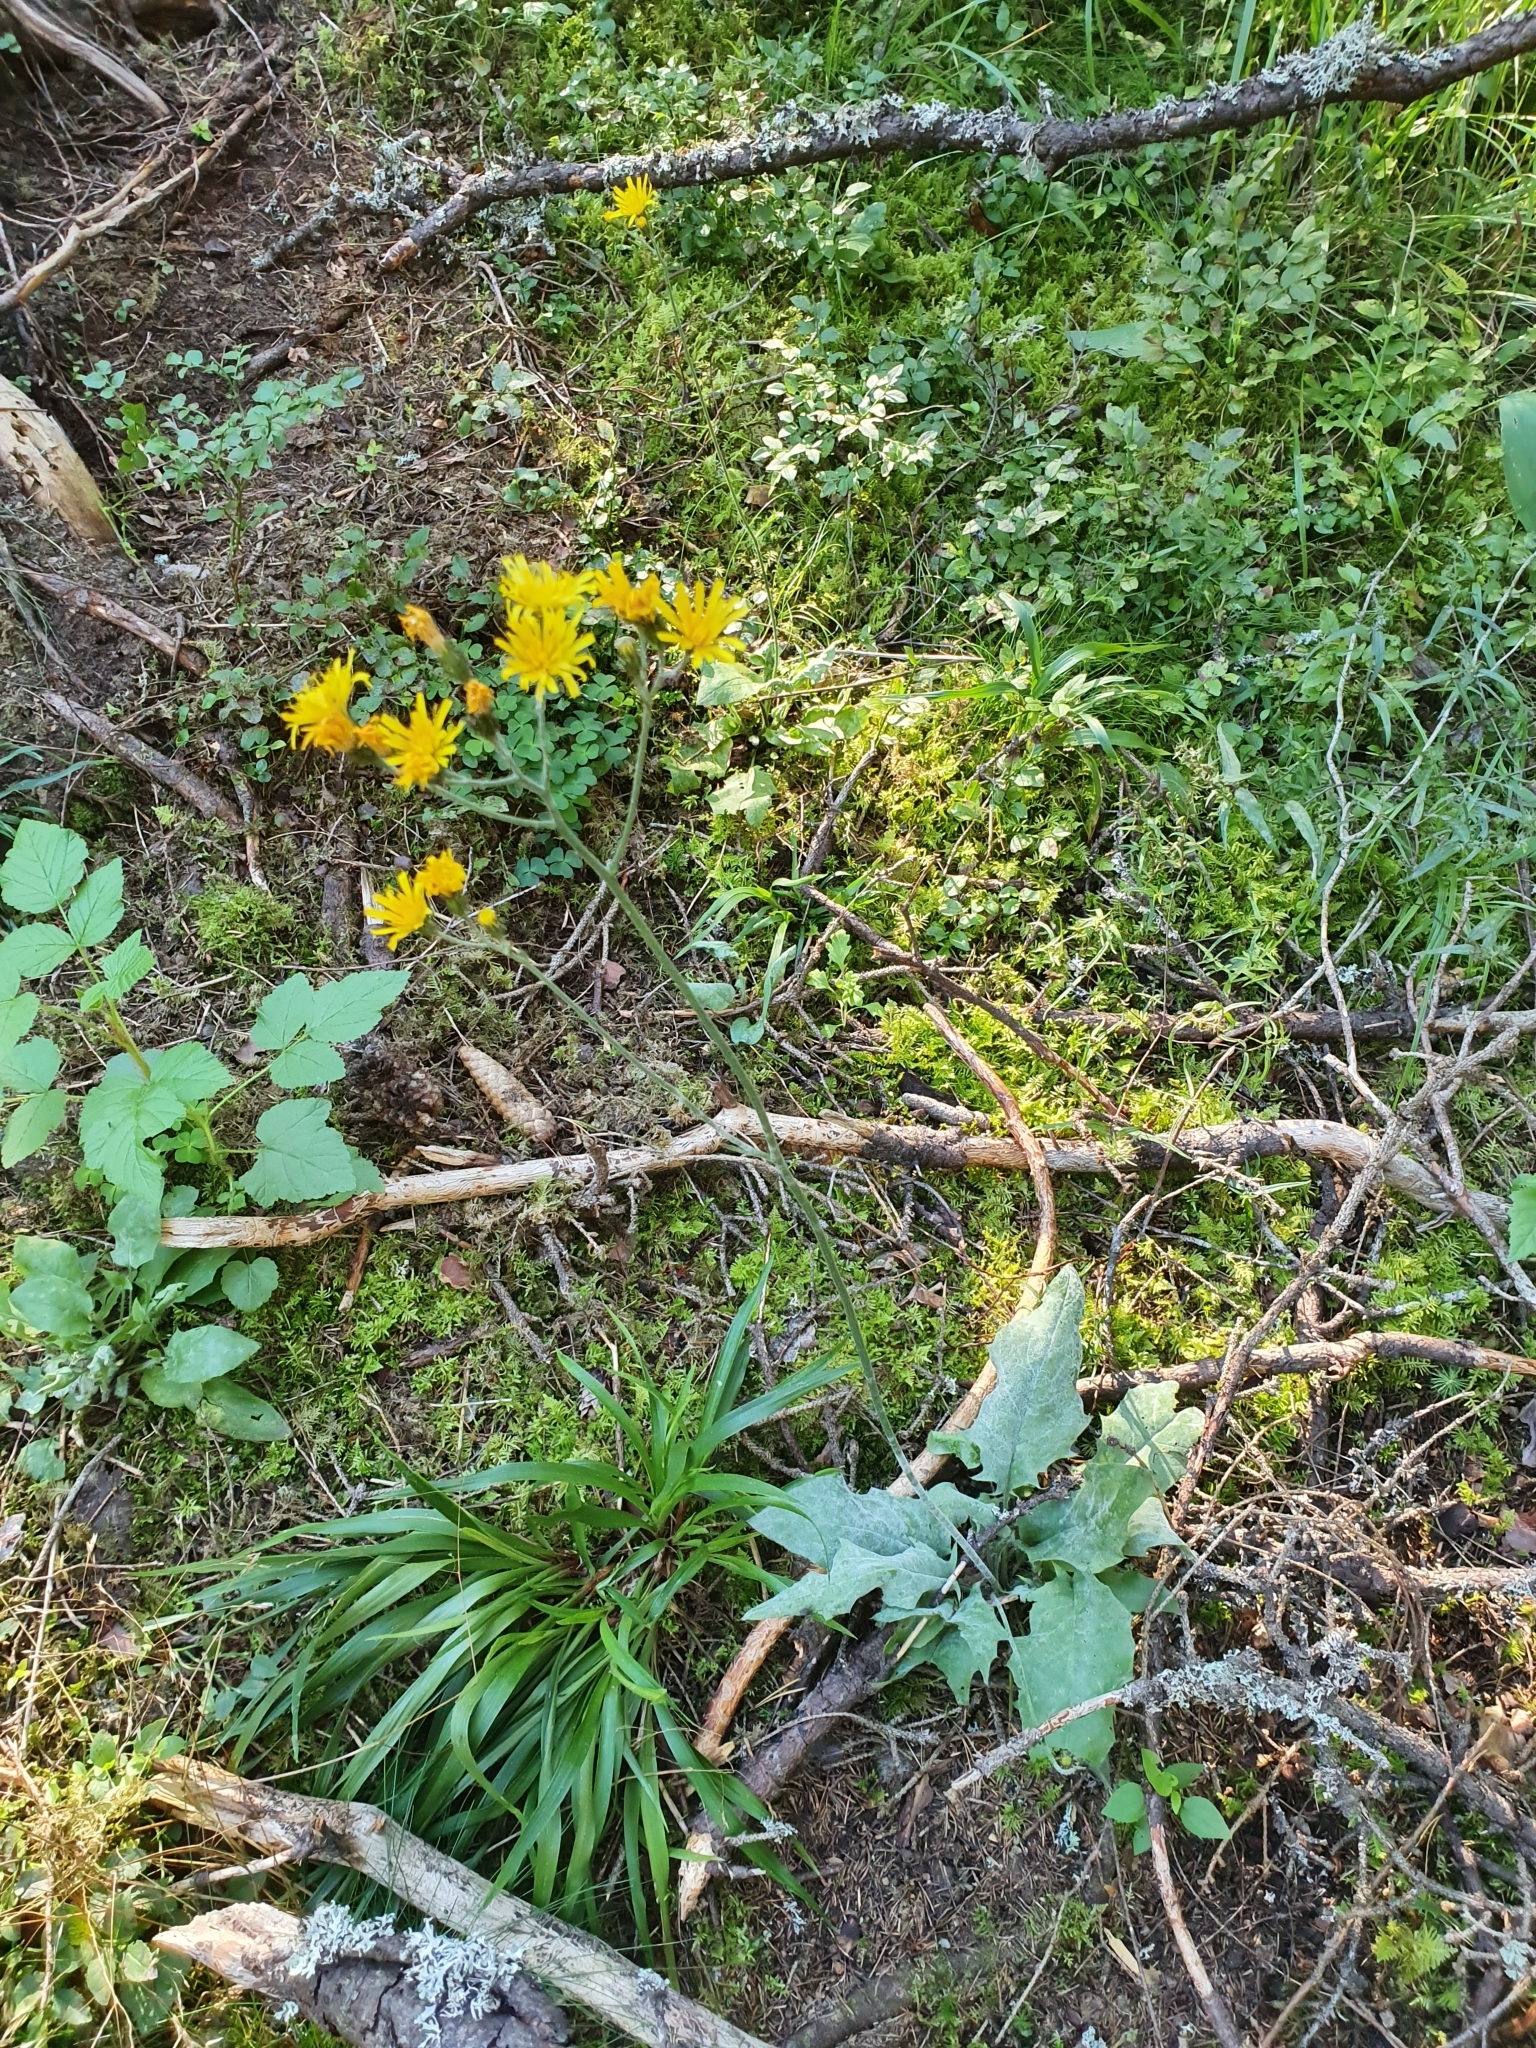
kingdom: Plantae
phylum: Tracheophyta
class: Magnoliopsida
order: Asterales
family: Asteraceae
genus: Hieracium
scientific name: Hieracium umbellatum
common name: Northern hawkweed
